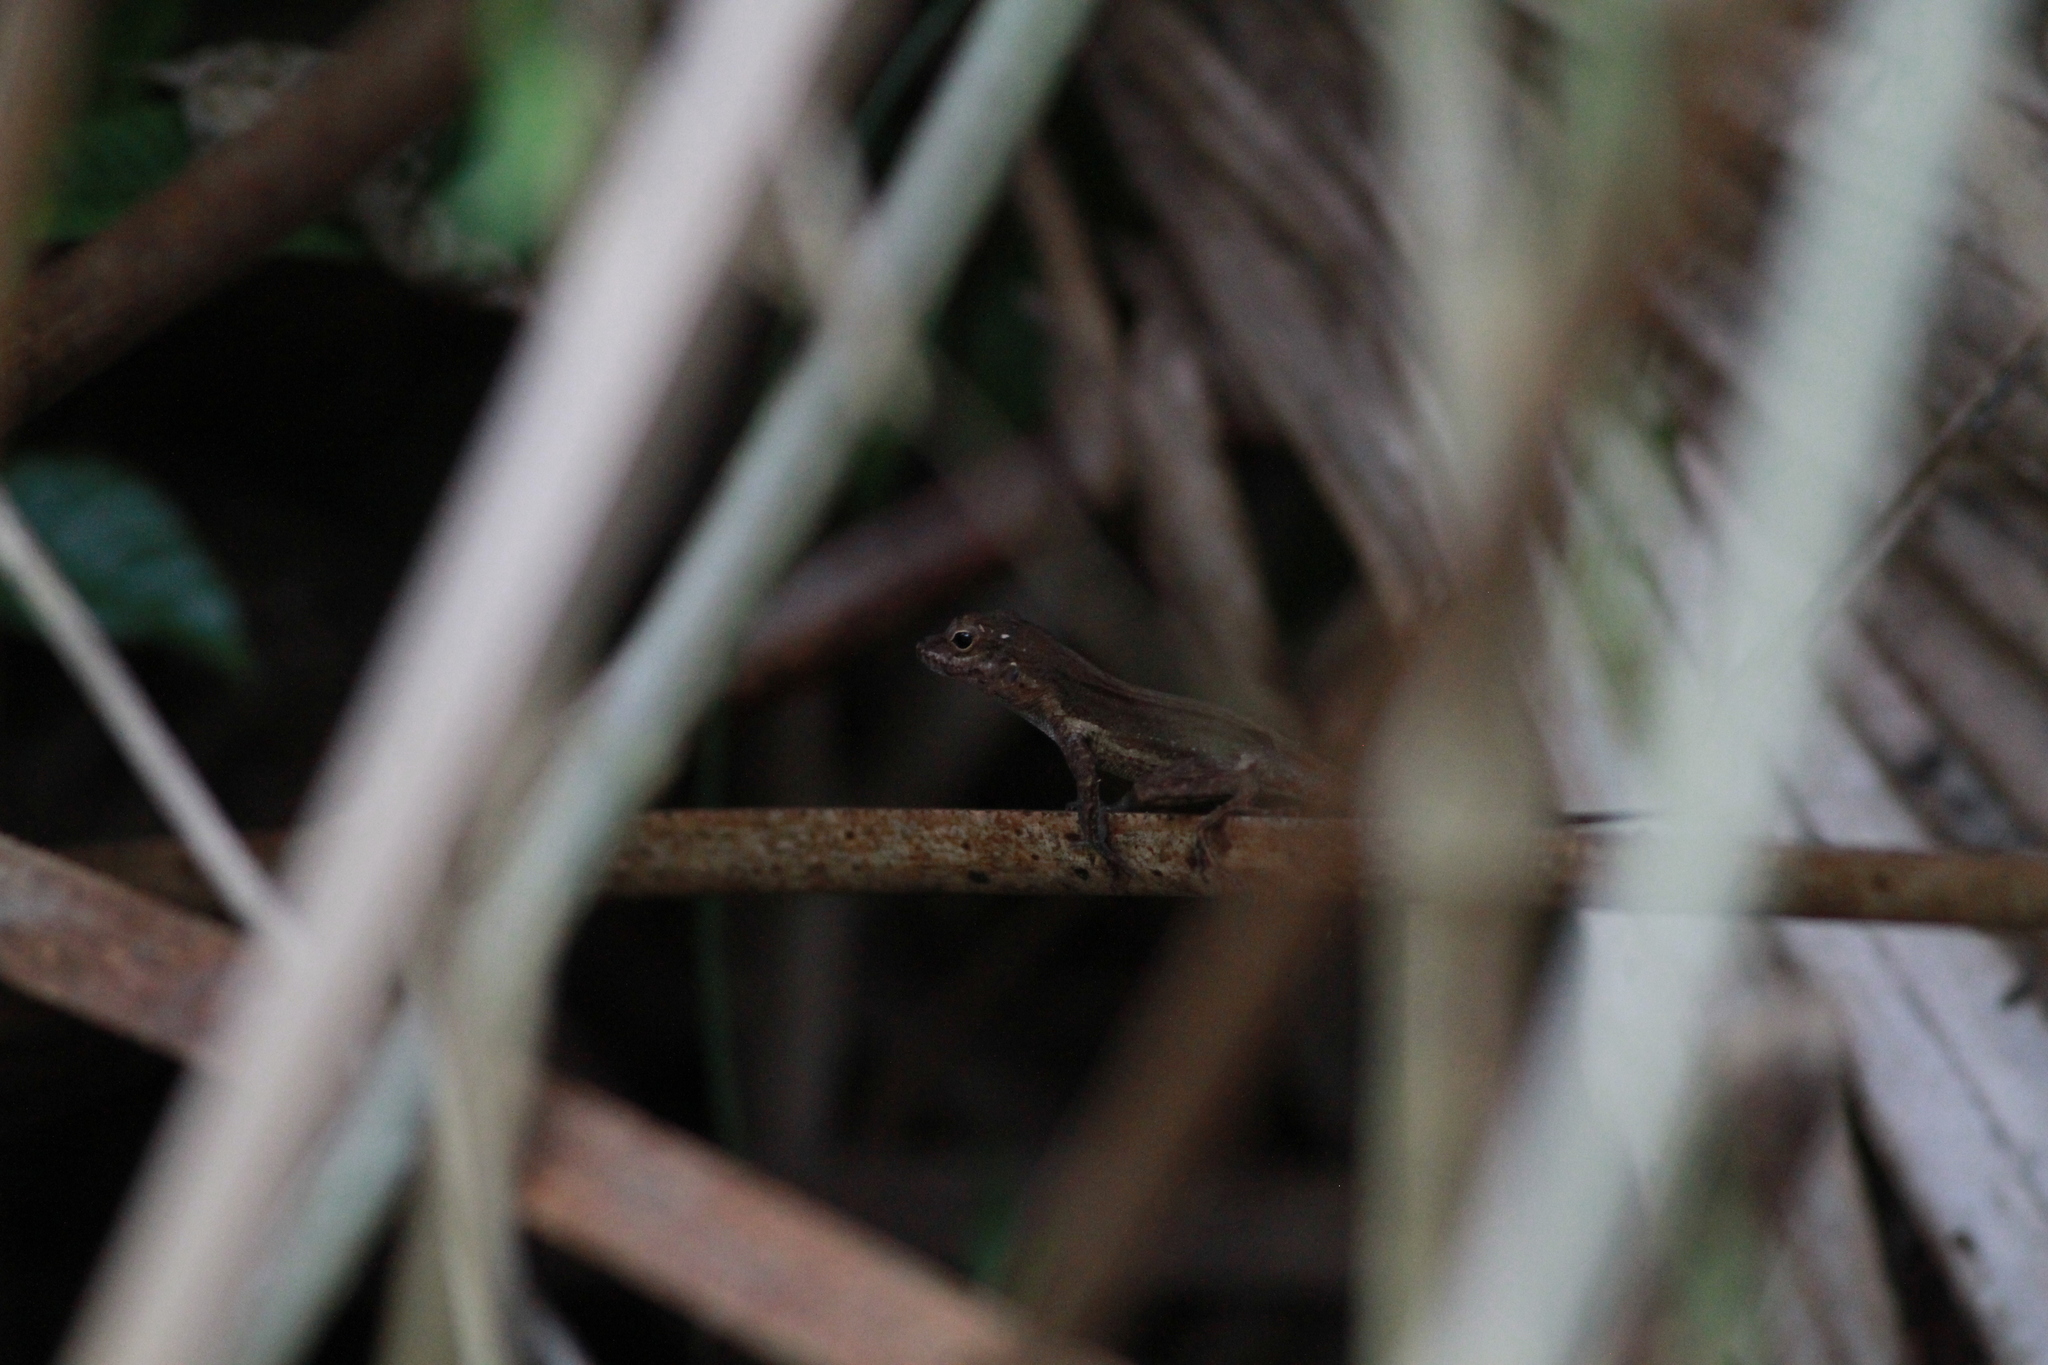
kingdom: Animalia
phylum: Chordata
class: Squamata
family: Dactyloidae
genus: Anolis
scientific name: Anolis cristatellus
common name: Crested anole
